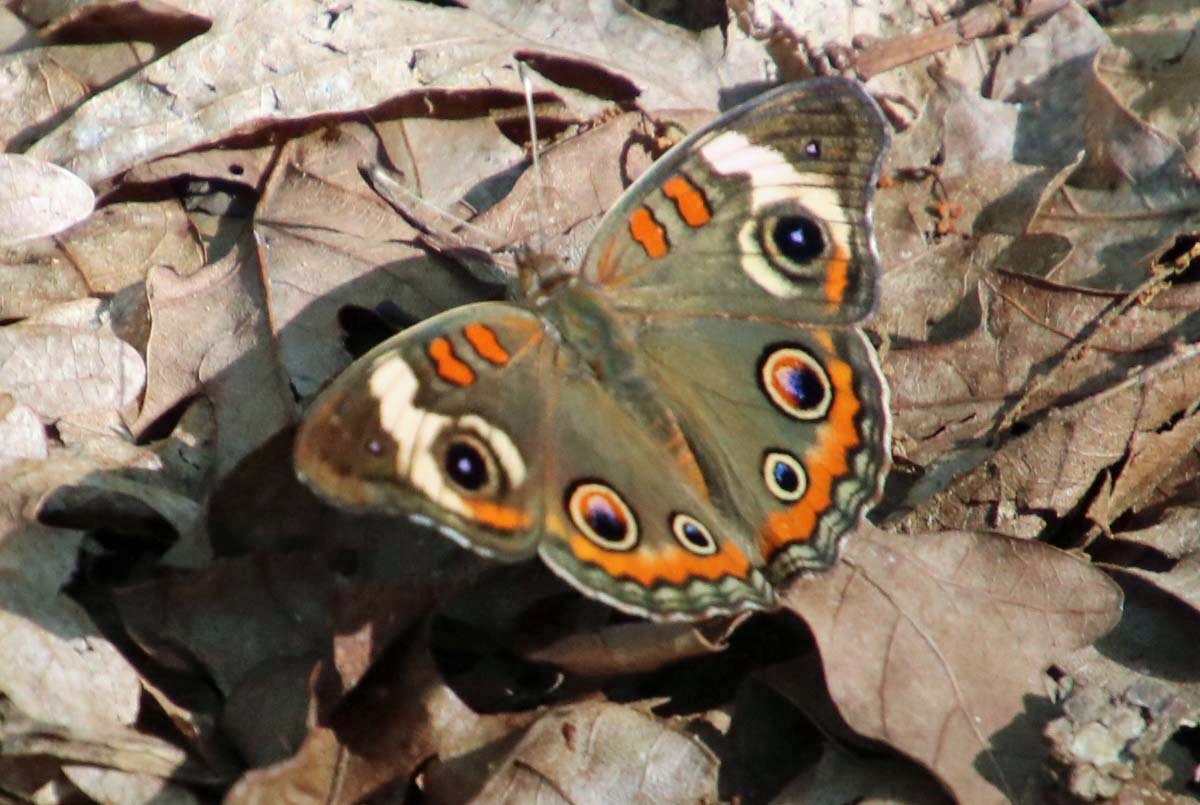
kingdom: Animalia
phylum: Arthropoda
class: Insecta
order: Lepidoptera
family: Nymphalidae
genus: Junonia
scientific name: Junonia coenia
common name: Common buckeye
